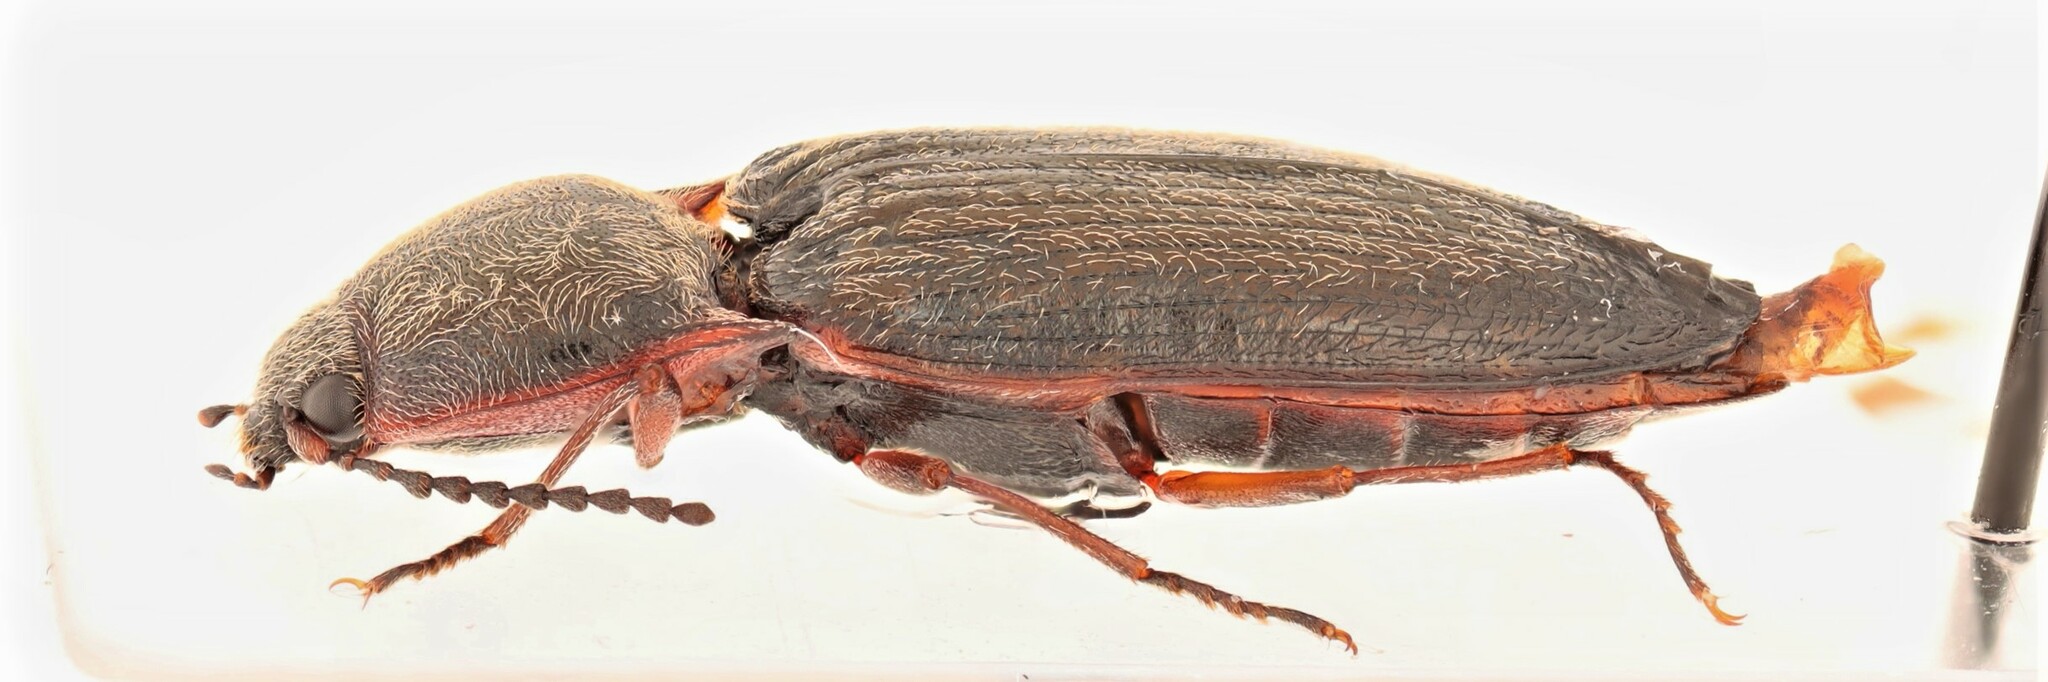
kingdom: Animalia
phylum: Arthropoda
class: Insecta
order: Coleoptera
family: Elateridae
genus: Setasomus
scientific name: Setasomus rufopleuralis
